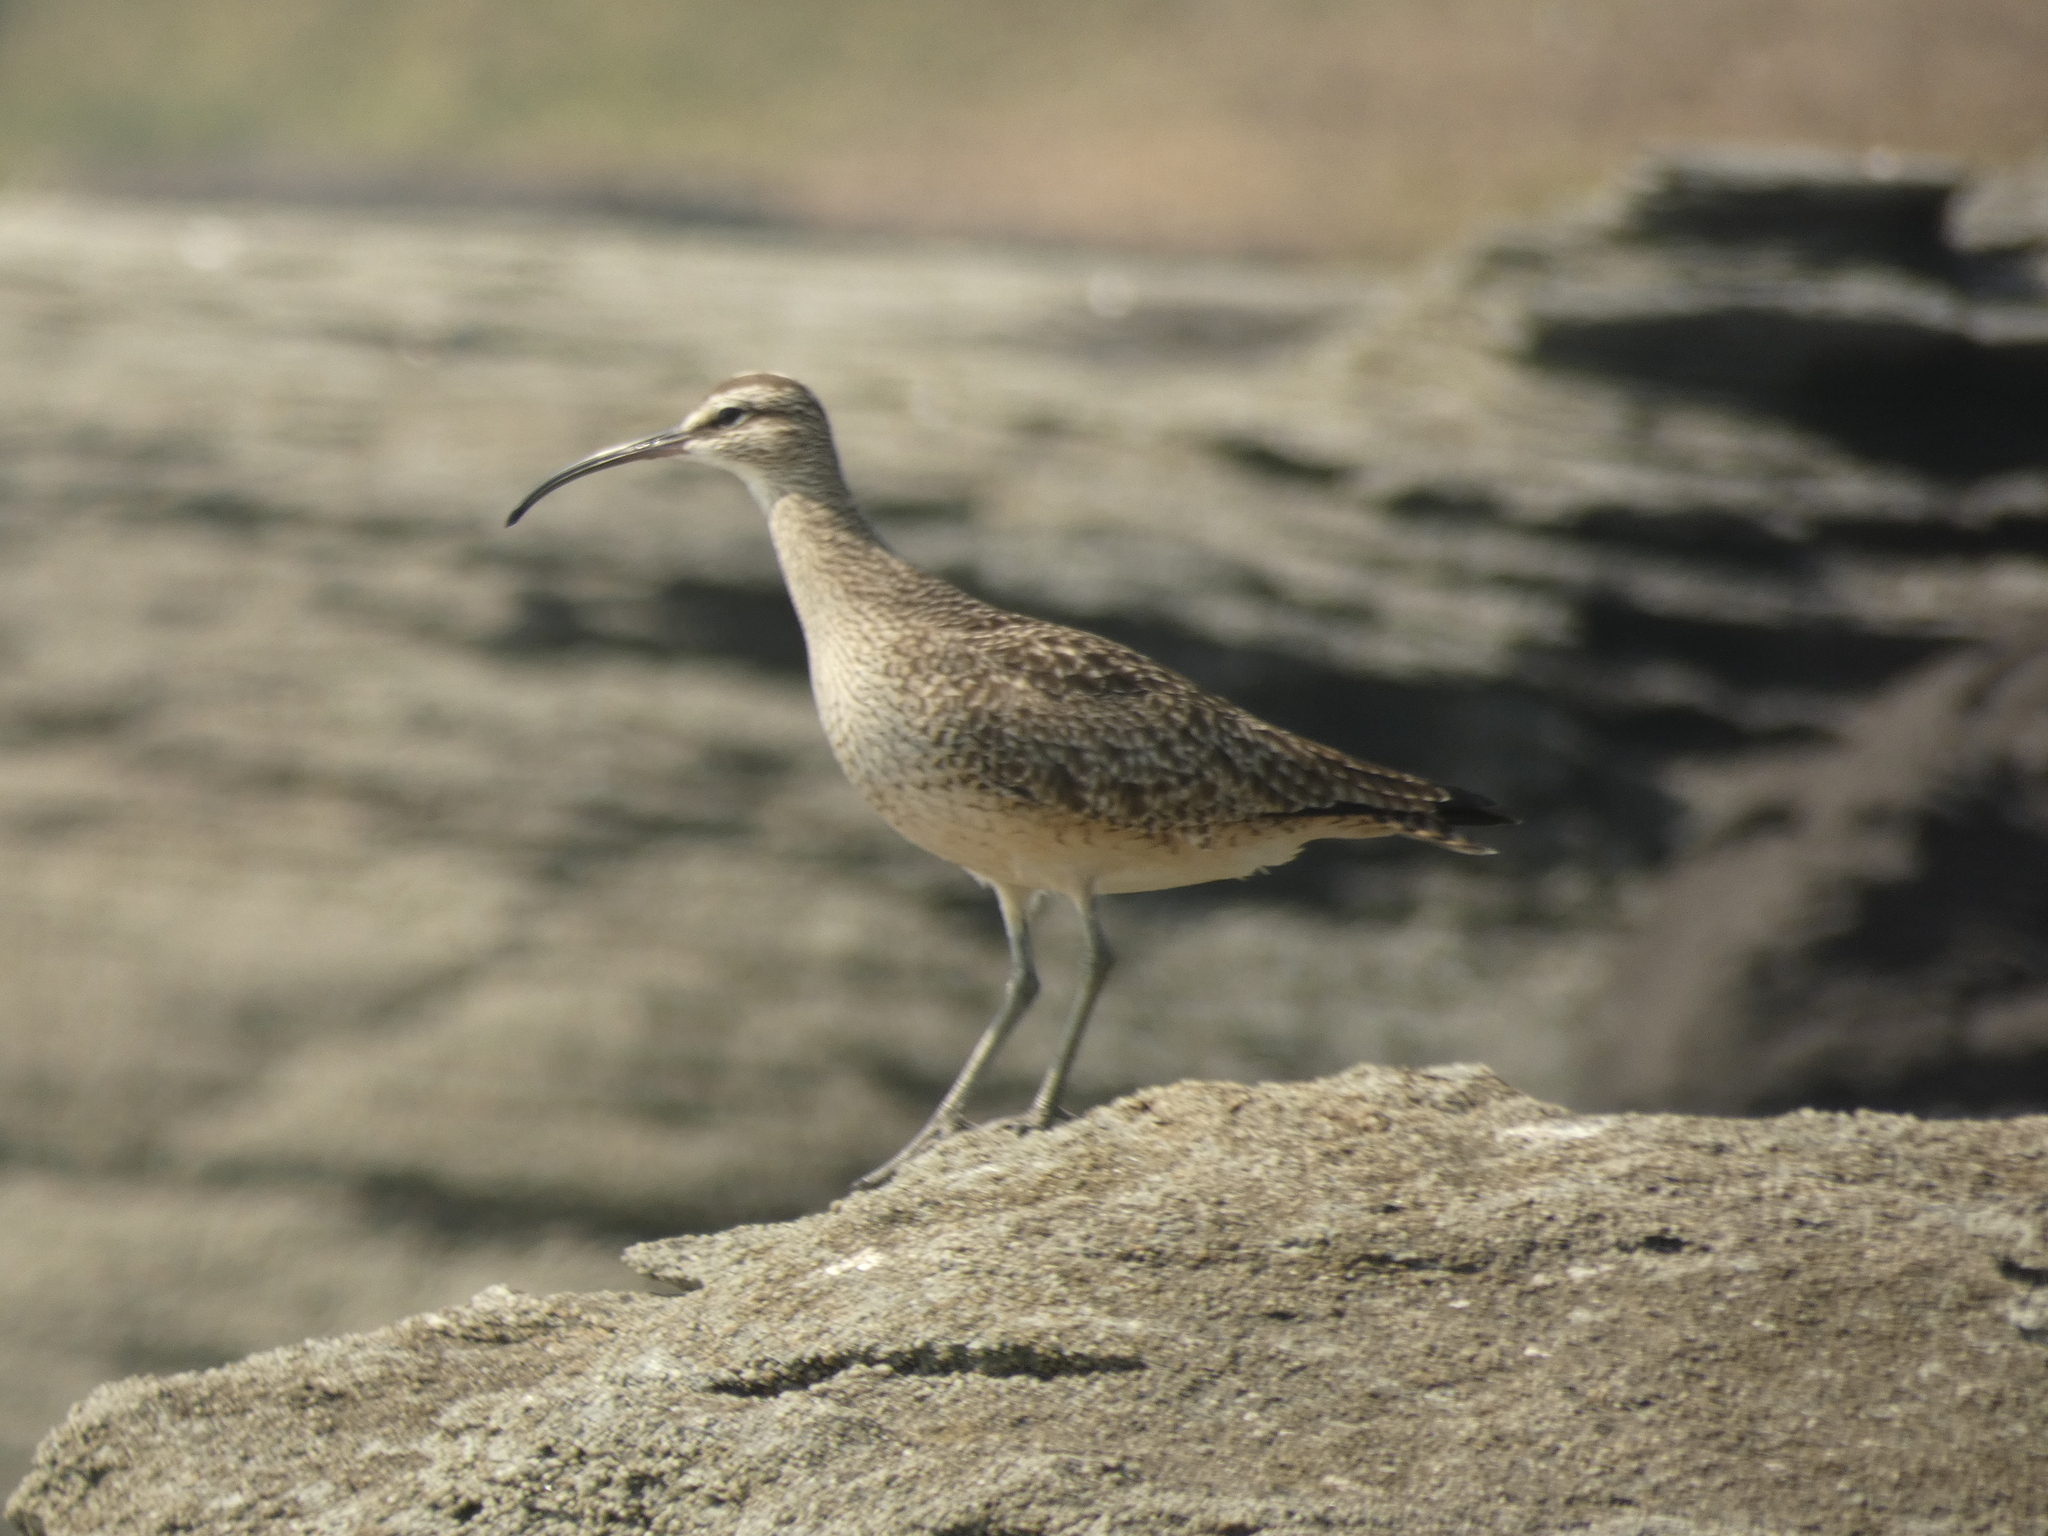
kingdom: Animalia
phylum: Chordata
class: Aves
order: Charadriiformes
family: Scolopacidae
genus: Numenius
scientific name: Numenius phaeopus
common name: Whimbrel
